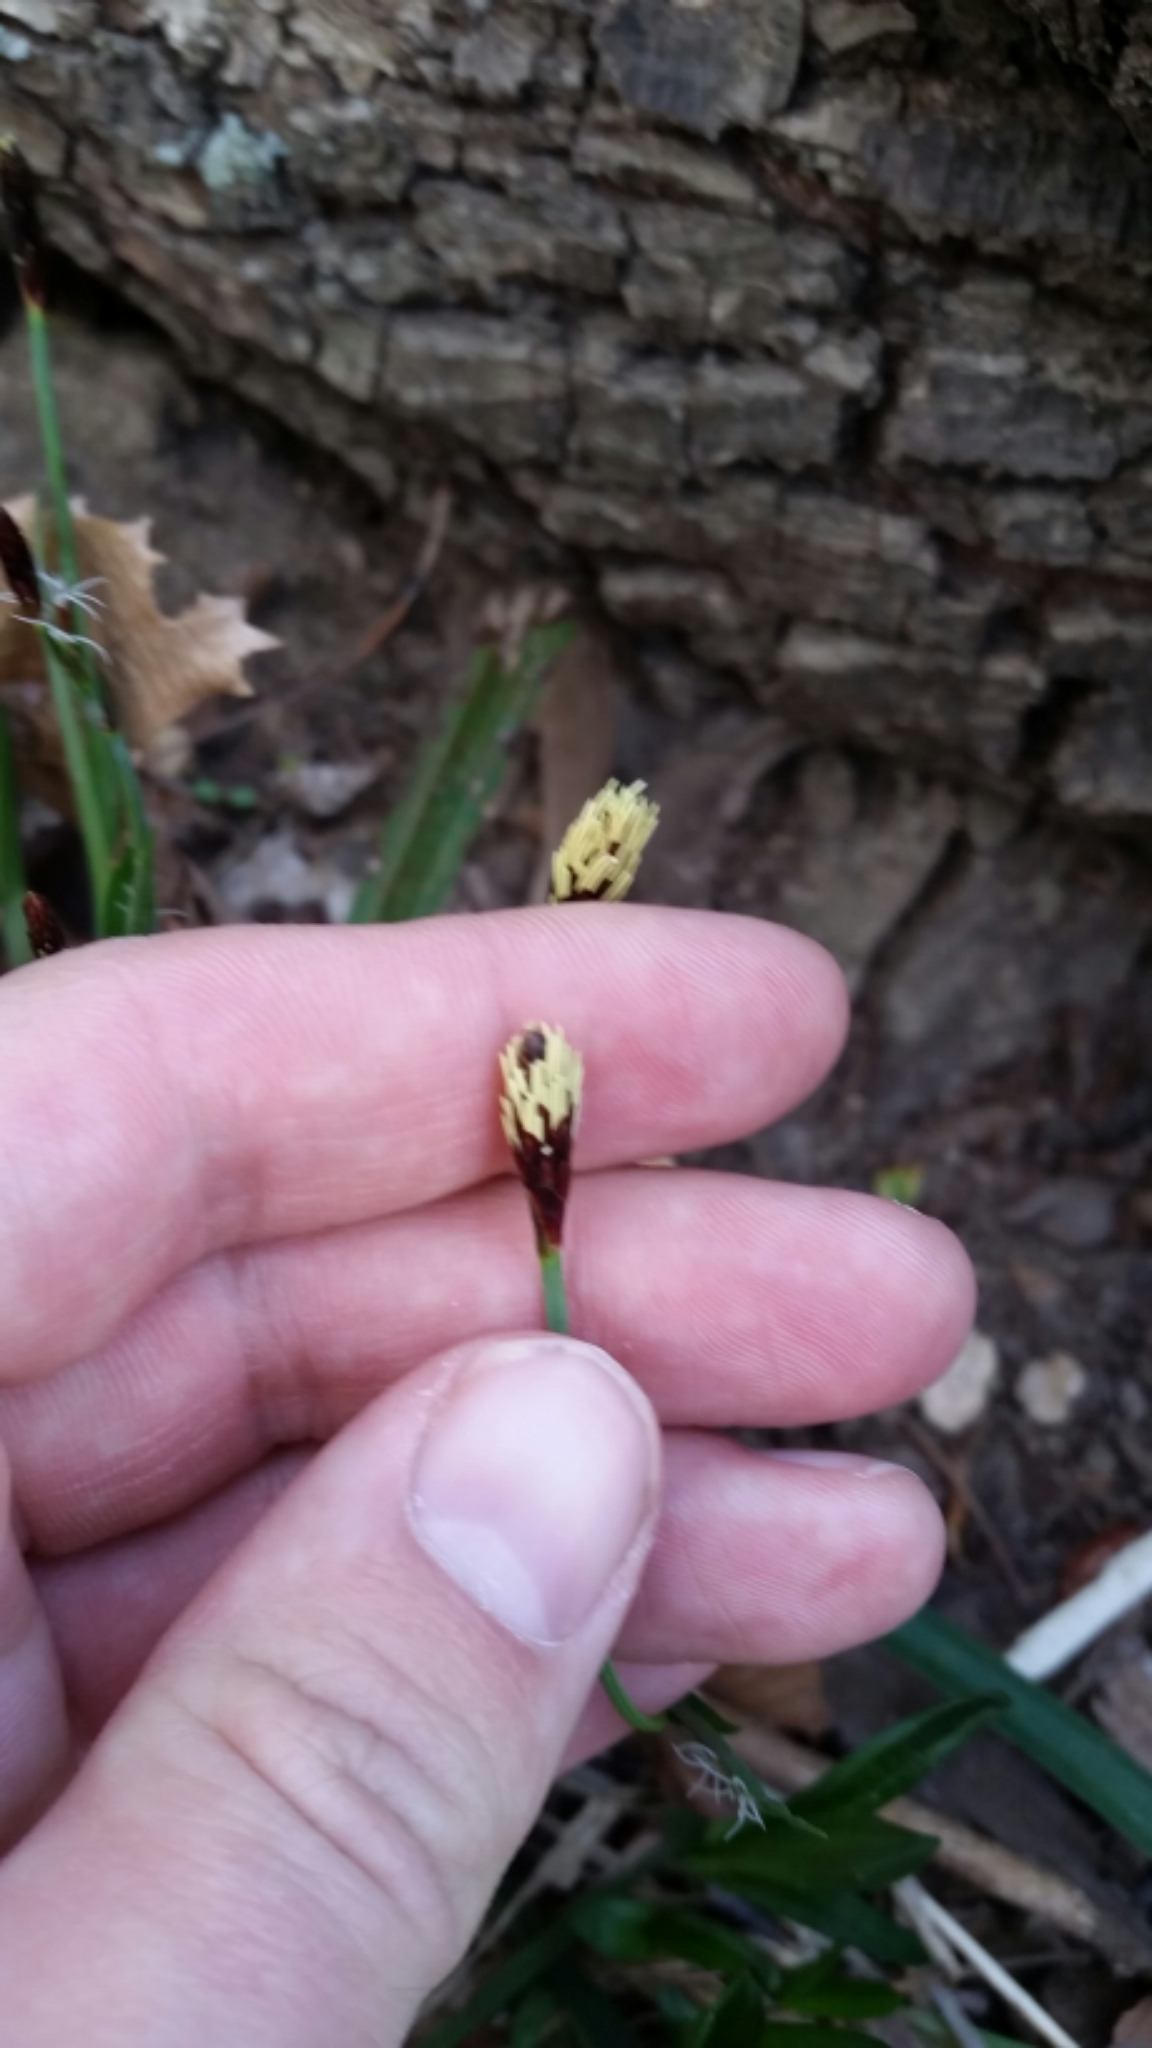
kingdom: Plantae
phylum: Tracheophyta
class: Liliopsida
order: Poales
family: Cyperaceae
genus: Carex
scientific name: Carex careyana
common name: Carey's sedge
